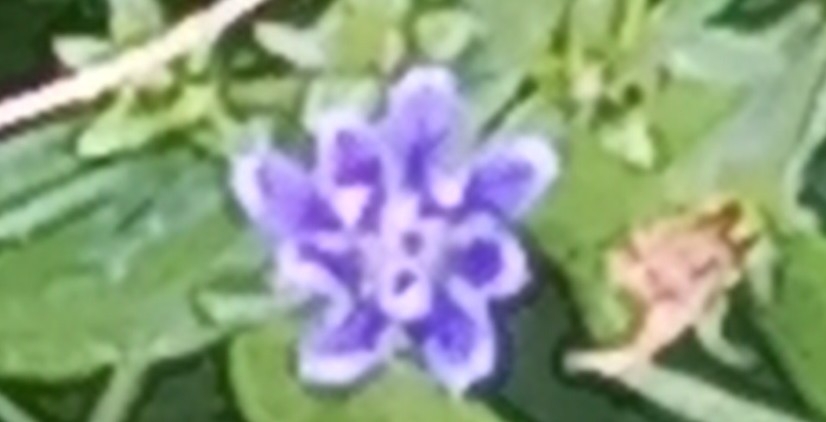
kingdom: Plantae
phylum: Tracheophyta
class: Magnoliopsida
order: Asterales
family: Asteraceae
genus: Cichorium
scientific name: Cichorium intybus
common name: Chicory
